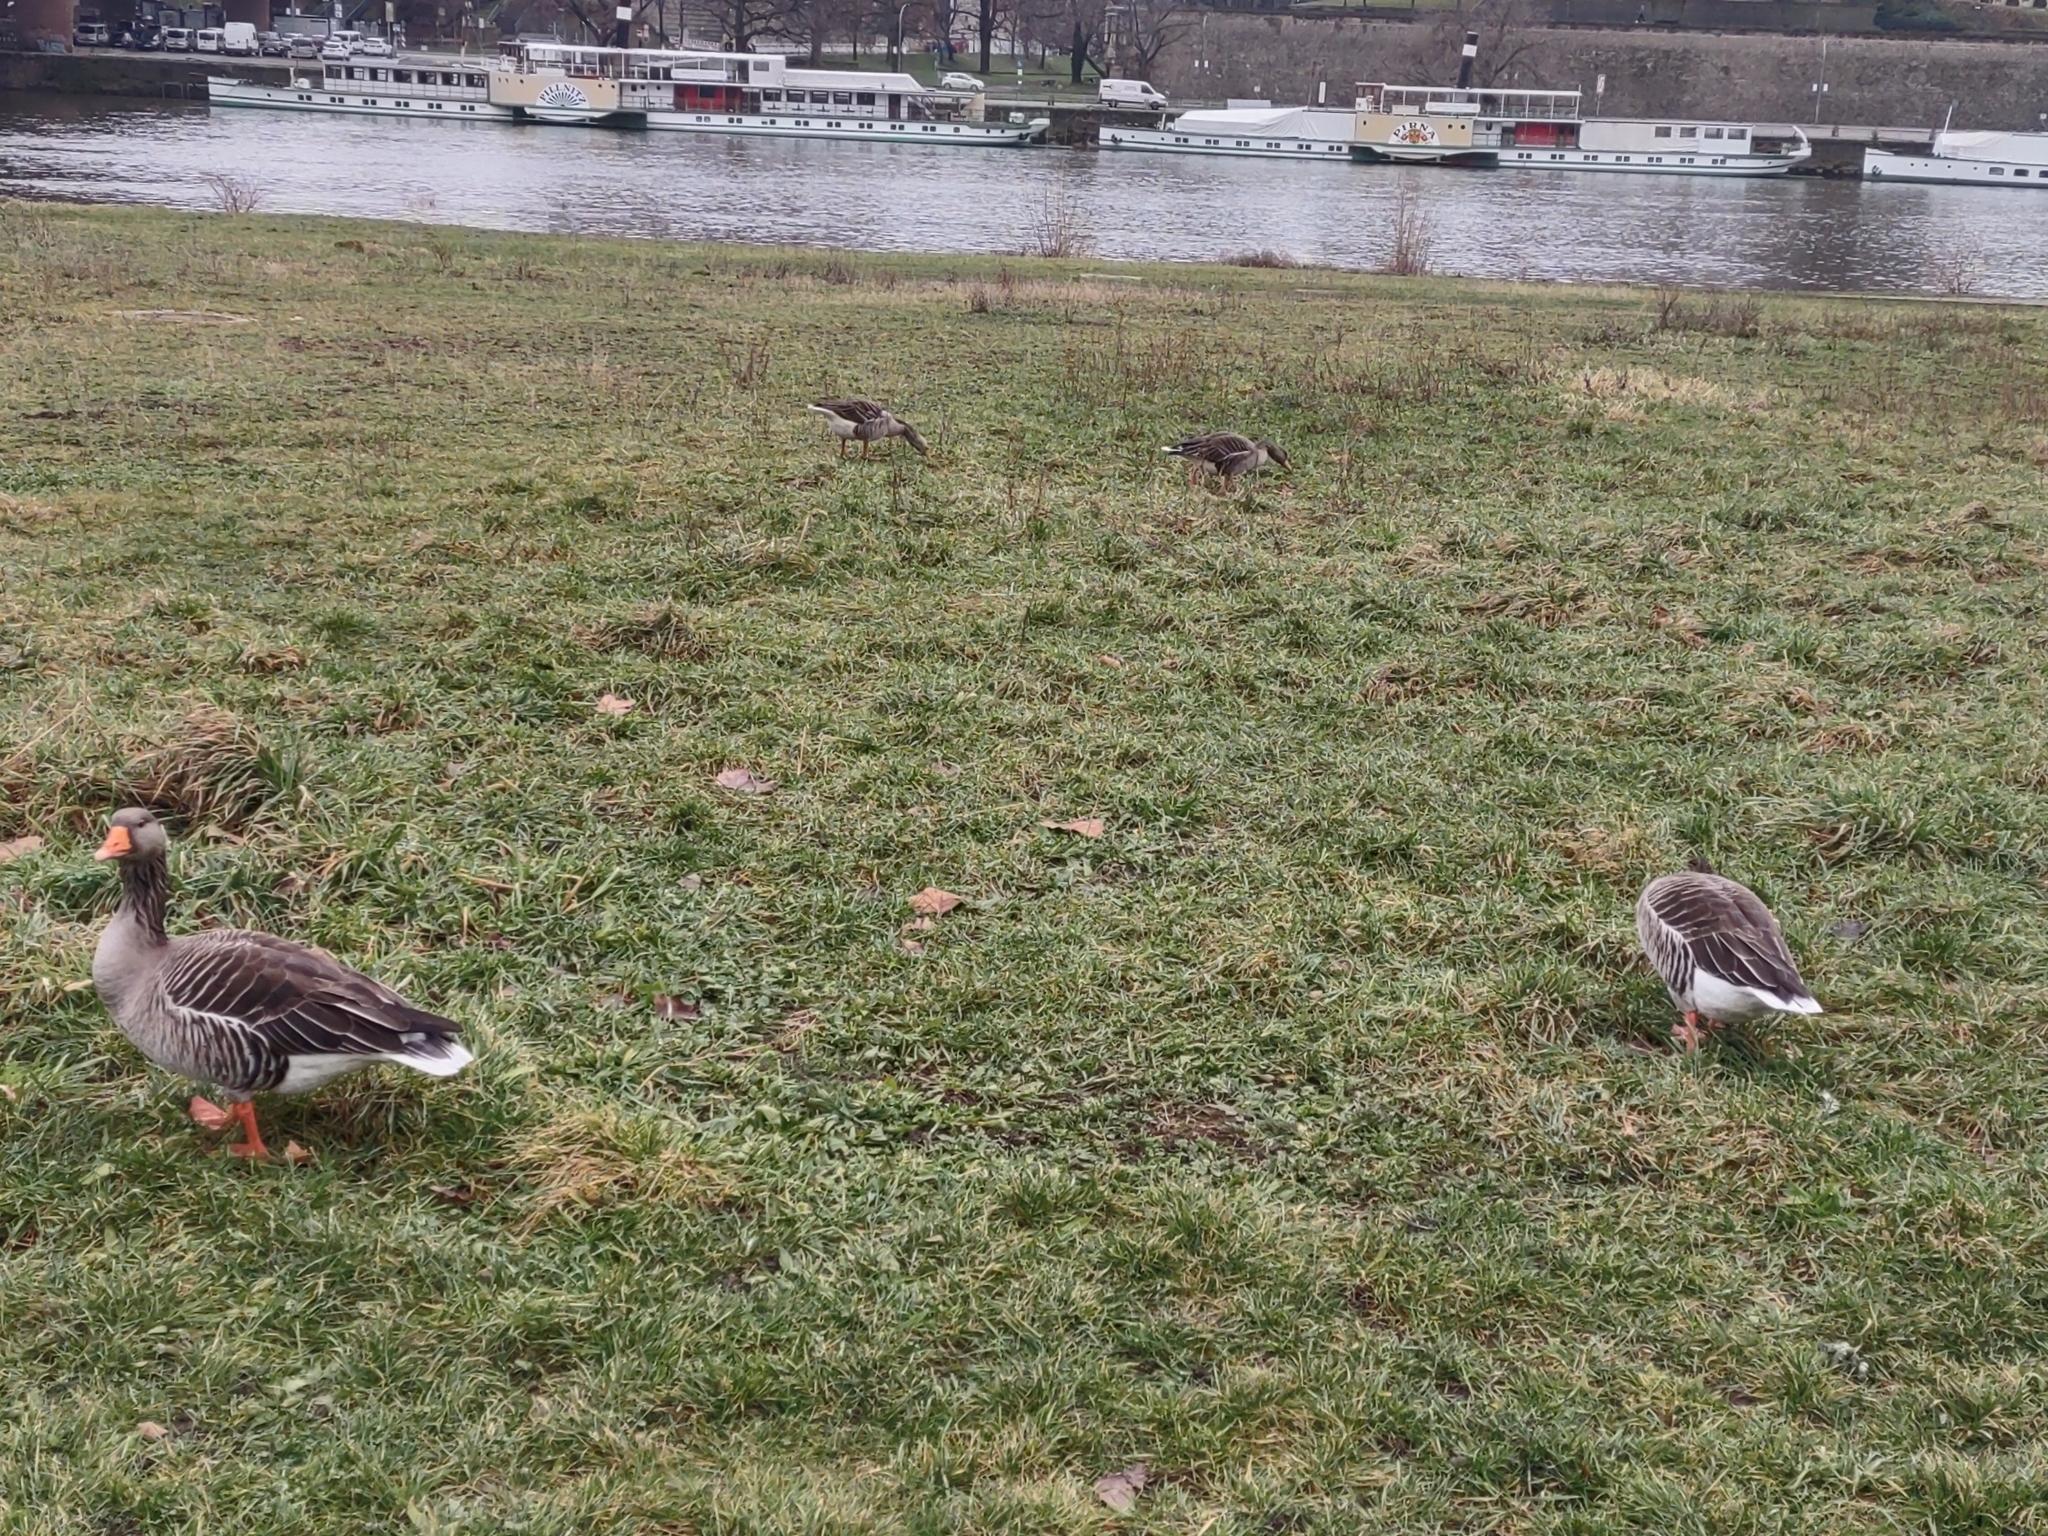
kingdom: Animalia
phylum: Chordata
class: Aves
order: Anseriformes
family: Anatidae
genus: Anser
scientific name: Anser anser
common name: Greylag goose
